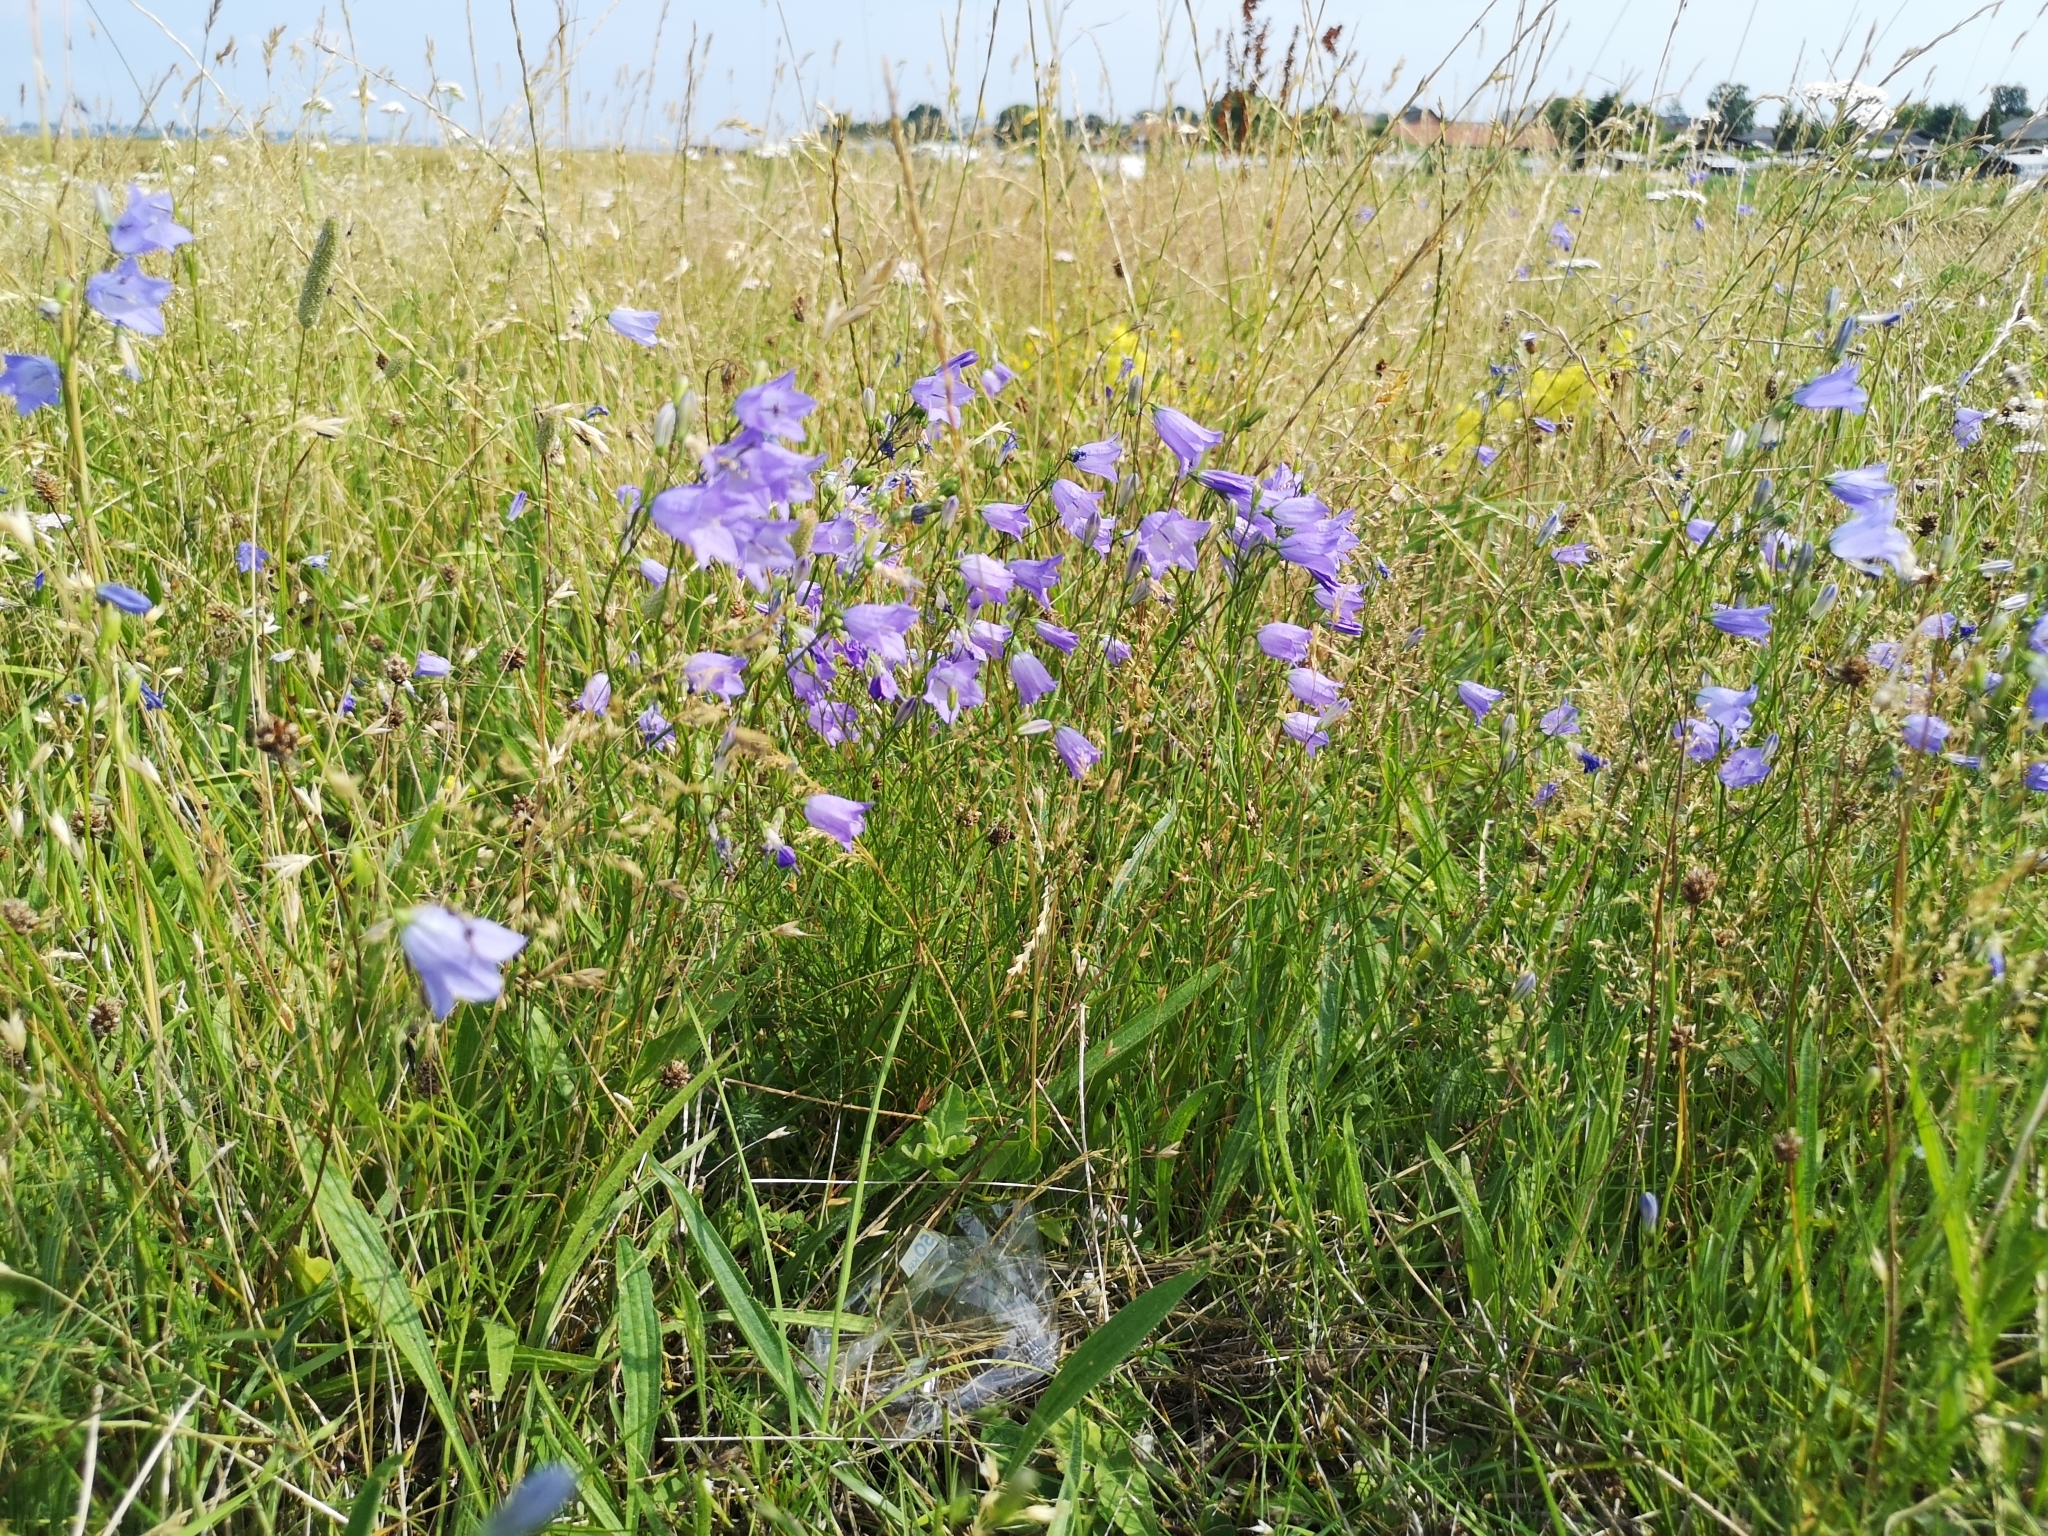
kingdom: Plantae
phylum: Tracheophyta
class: Magnoliopsida
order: Asterales
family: Campanulaceae
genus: Campanula
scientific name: Campanula rotundifolia
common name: Harebell
